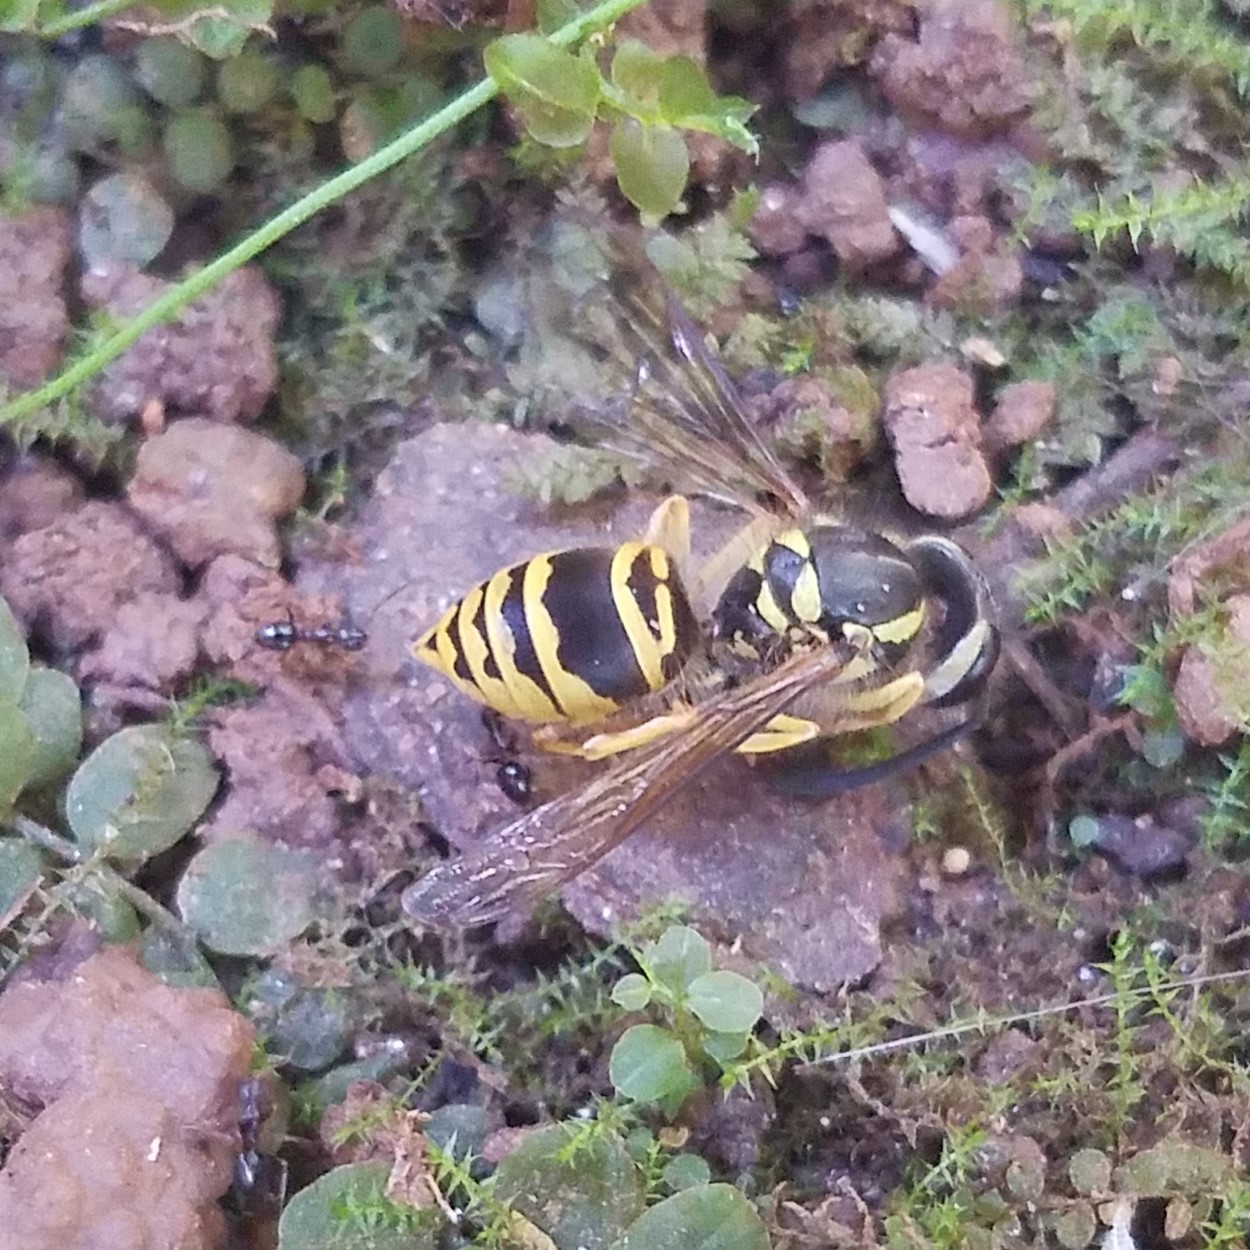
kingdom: Animalia
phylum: Arthropoda
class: Insecta
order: Hymenoptera
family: Vespidae
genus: Vespula
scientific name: Vespula maculifrons
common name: Eastern yellowjacket
